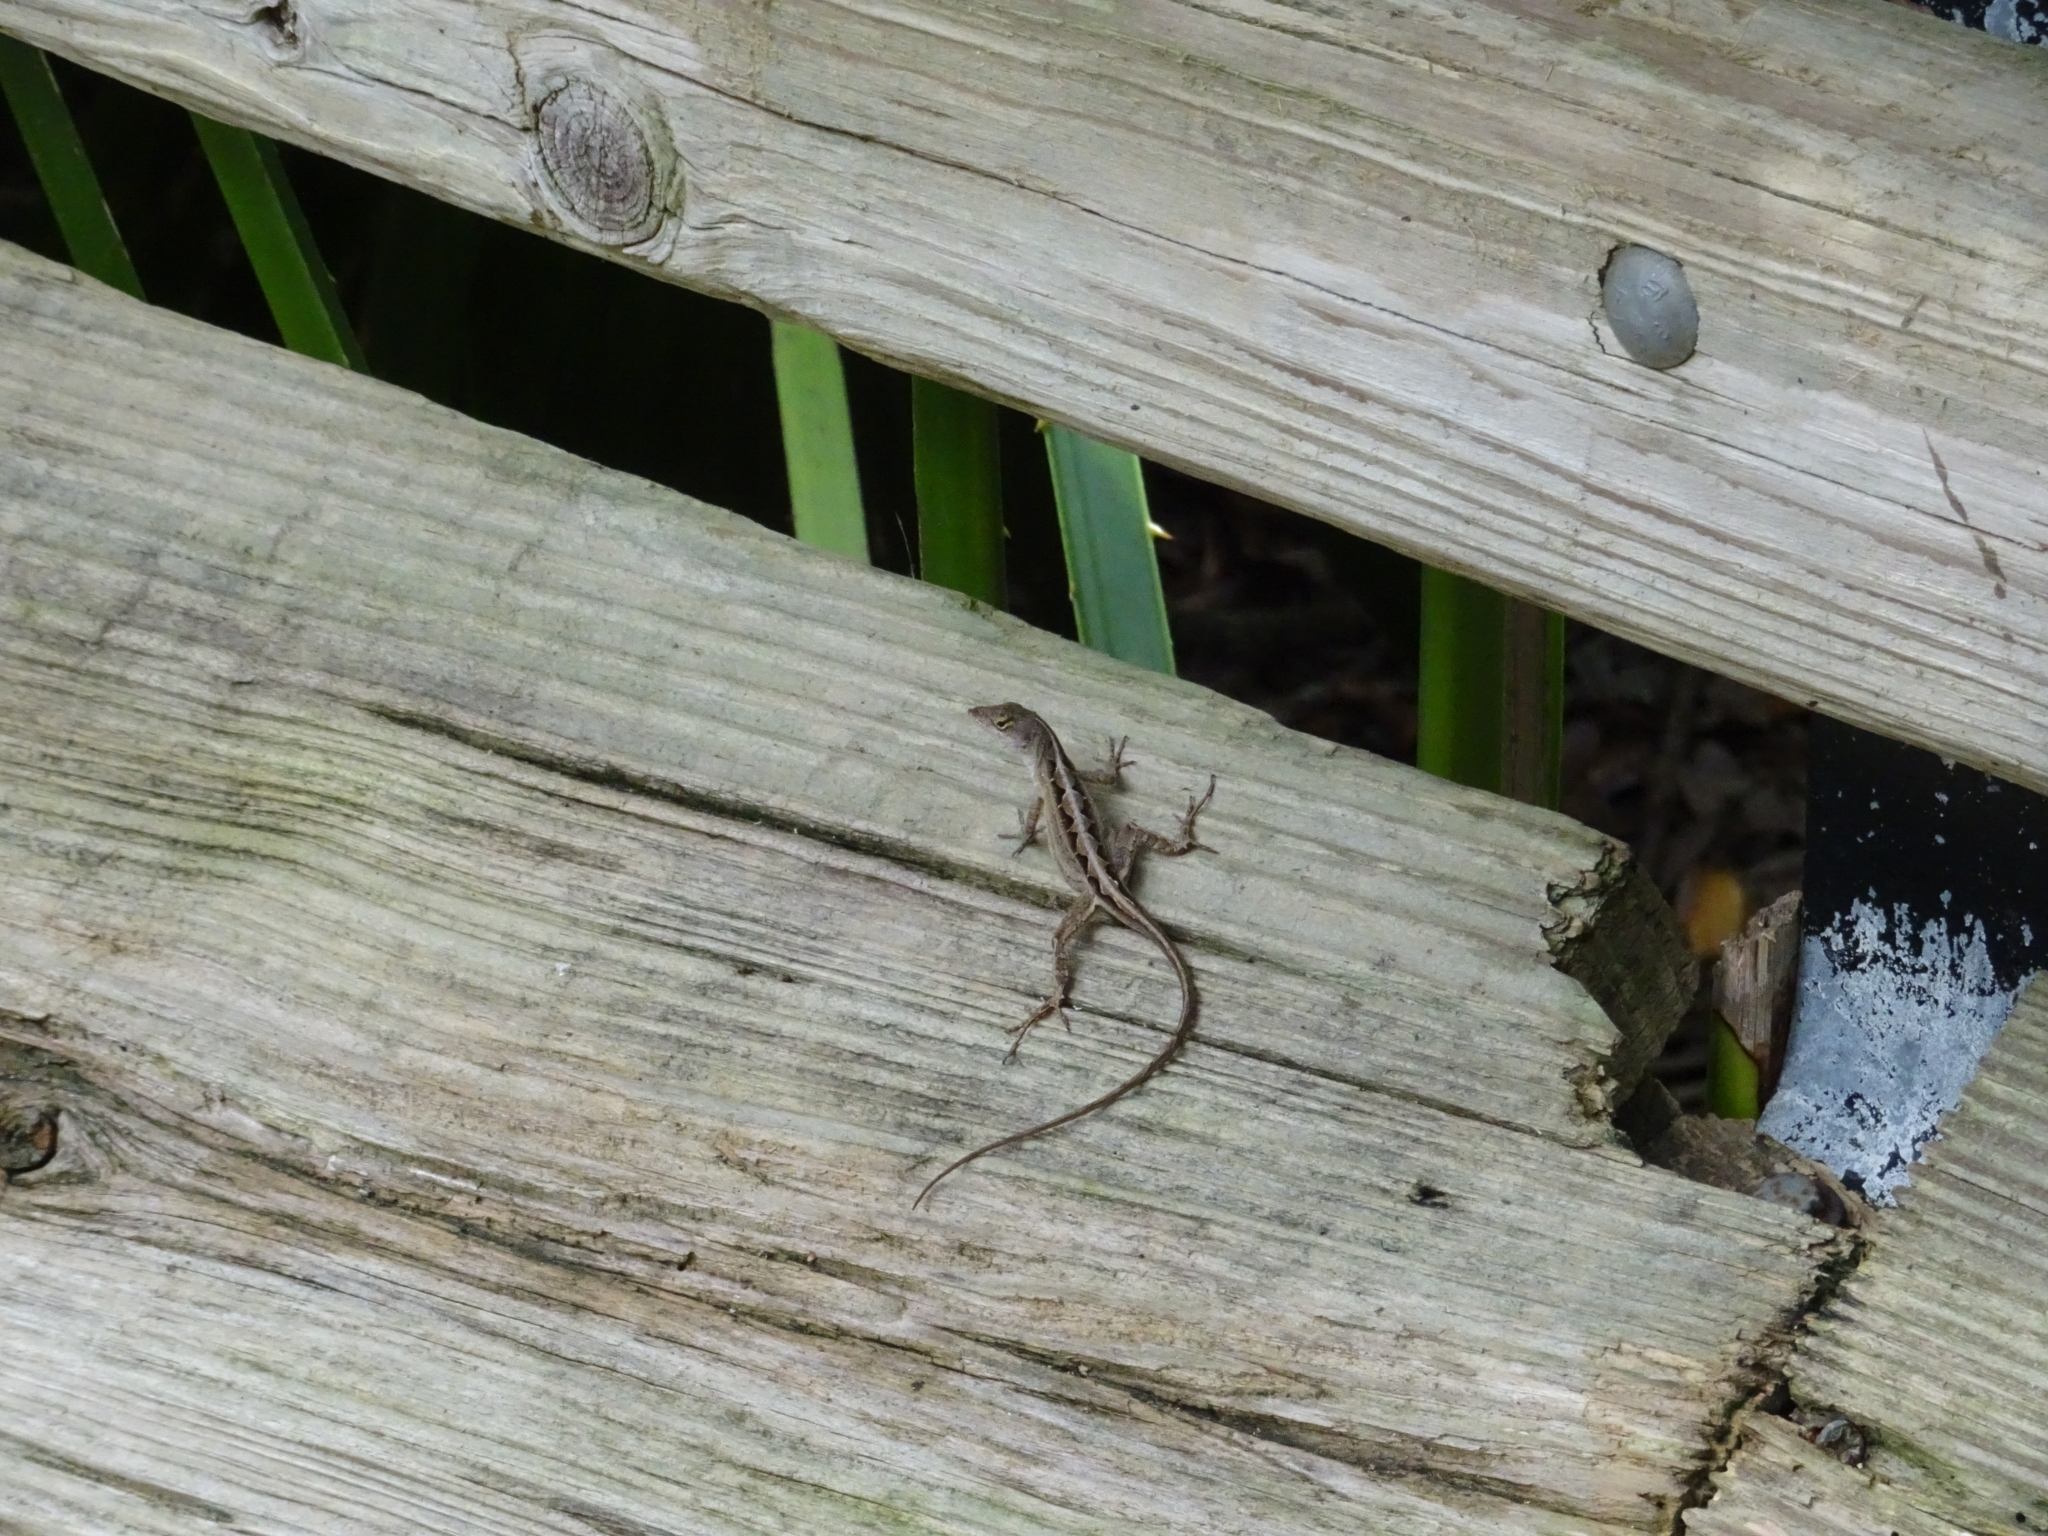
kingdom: Animalia
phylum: Chordata
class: Squamata
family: Dactyloidae
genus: Anolis
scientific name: Anolis sagrei
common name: Brown anole
